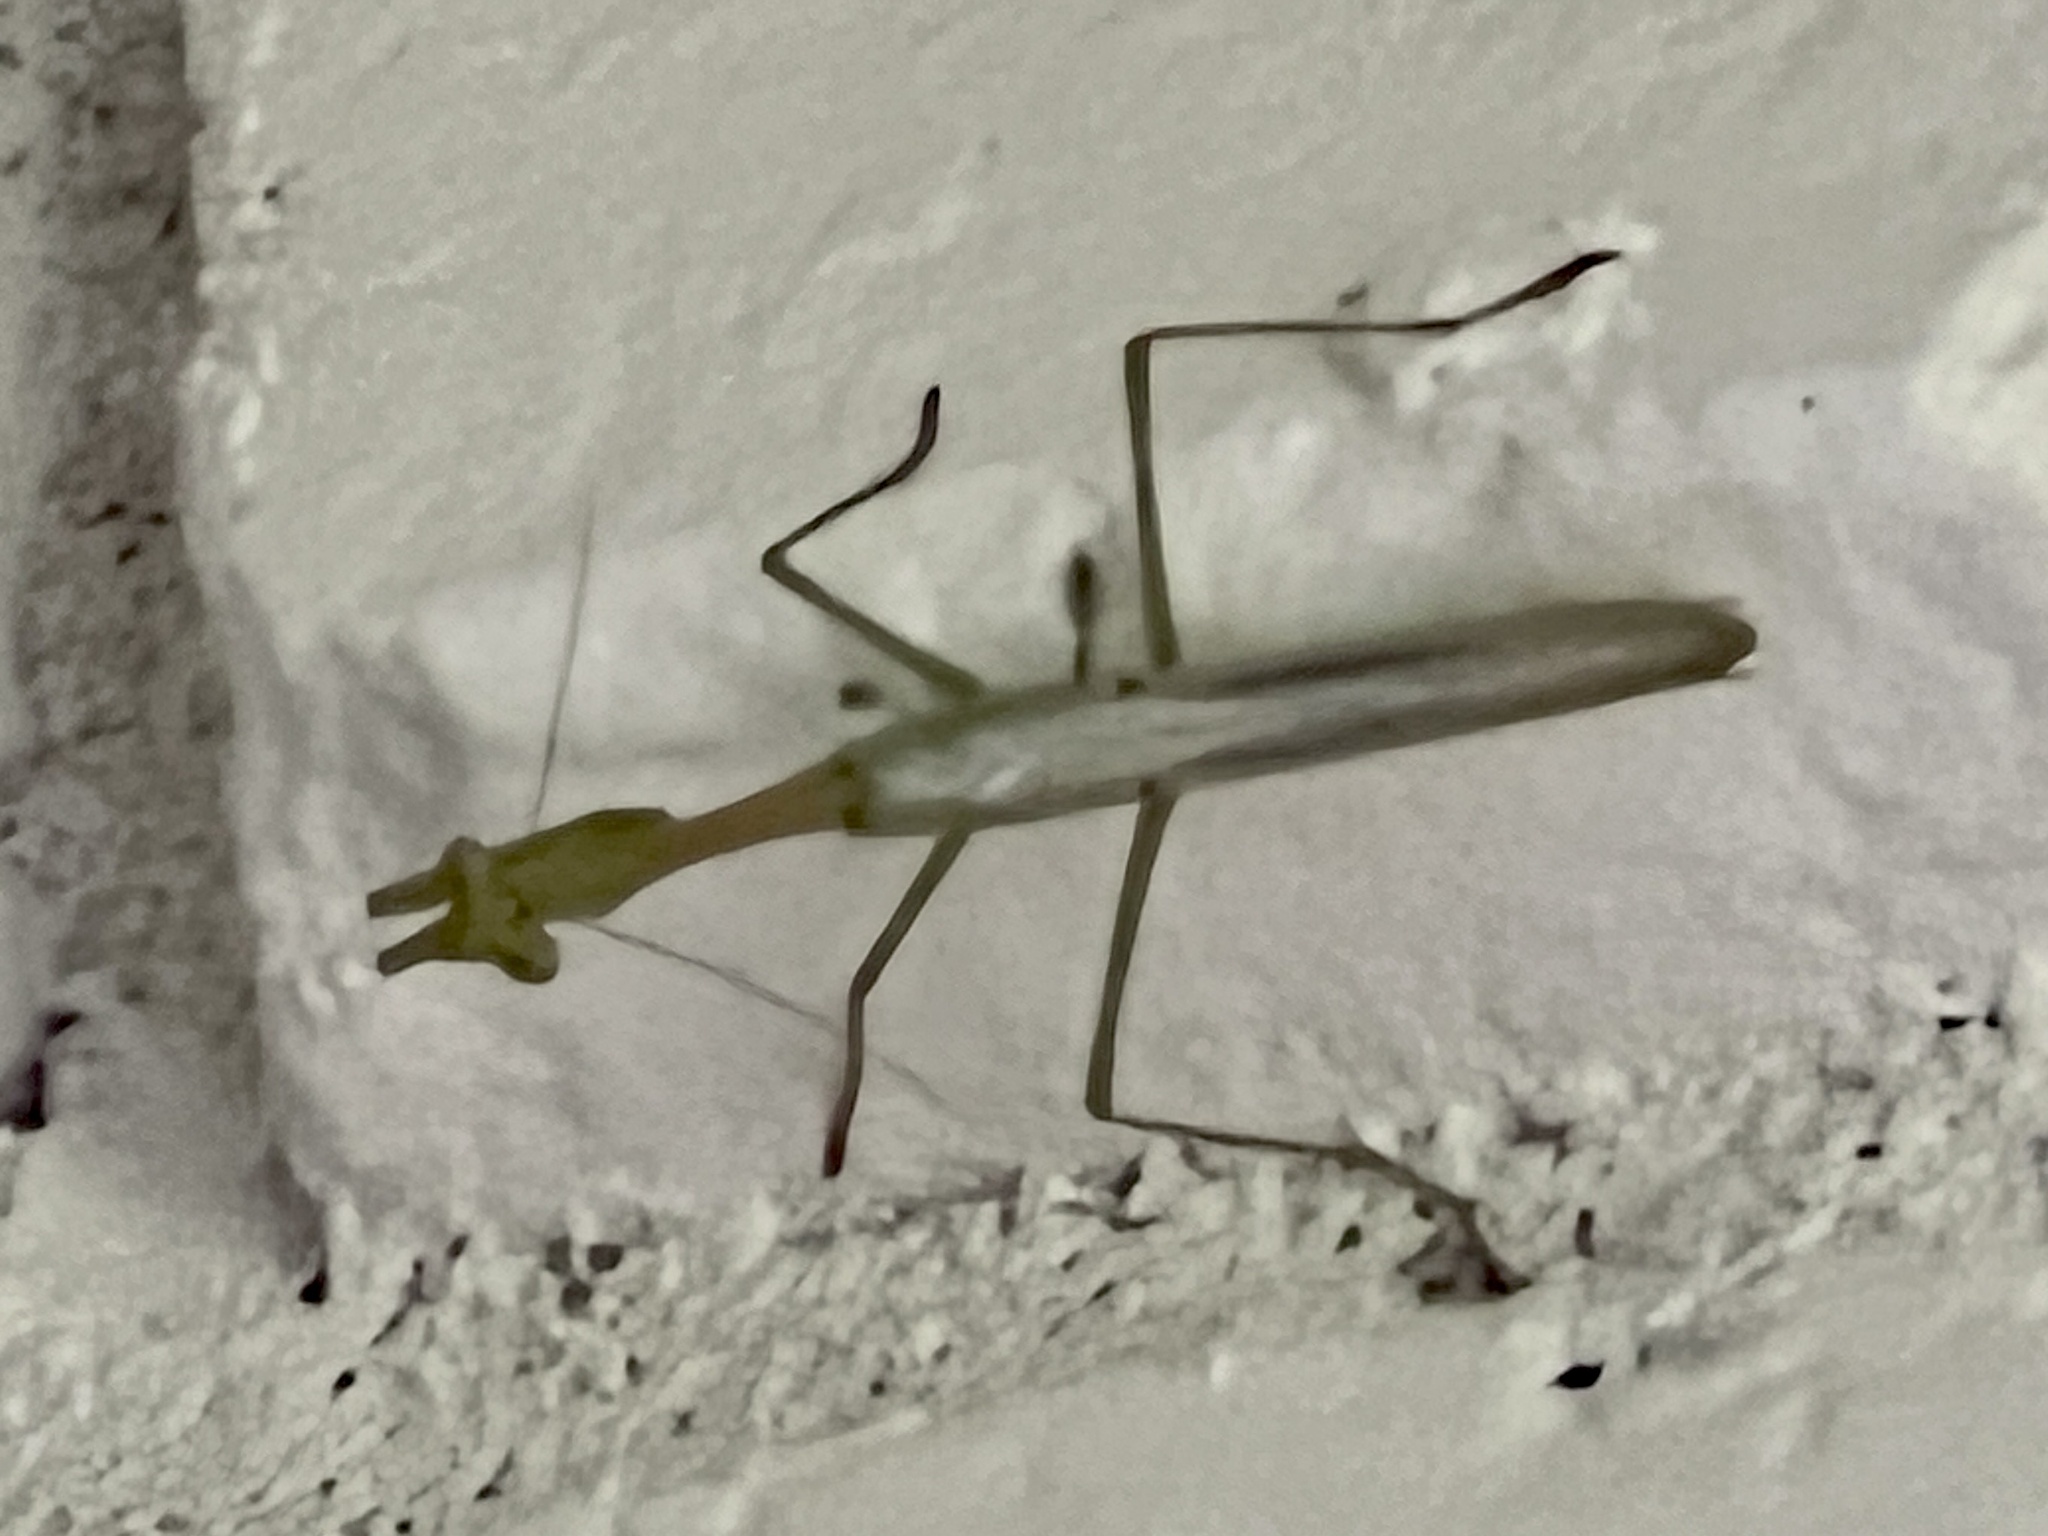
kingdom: Animalia
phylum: Arthropoda
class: Insecta
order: Mantodea
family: Mantidae
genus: Stagmomantis
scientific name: Stagmomantis limbata
